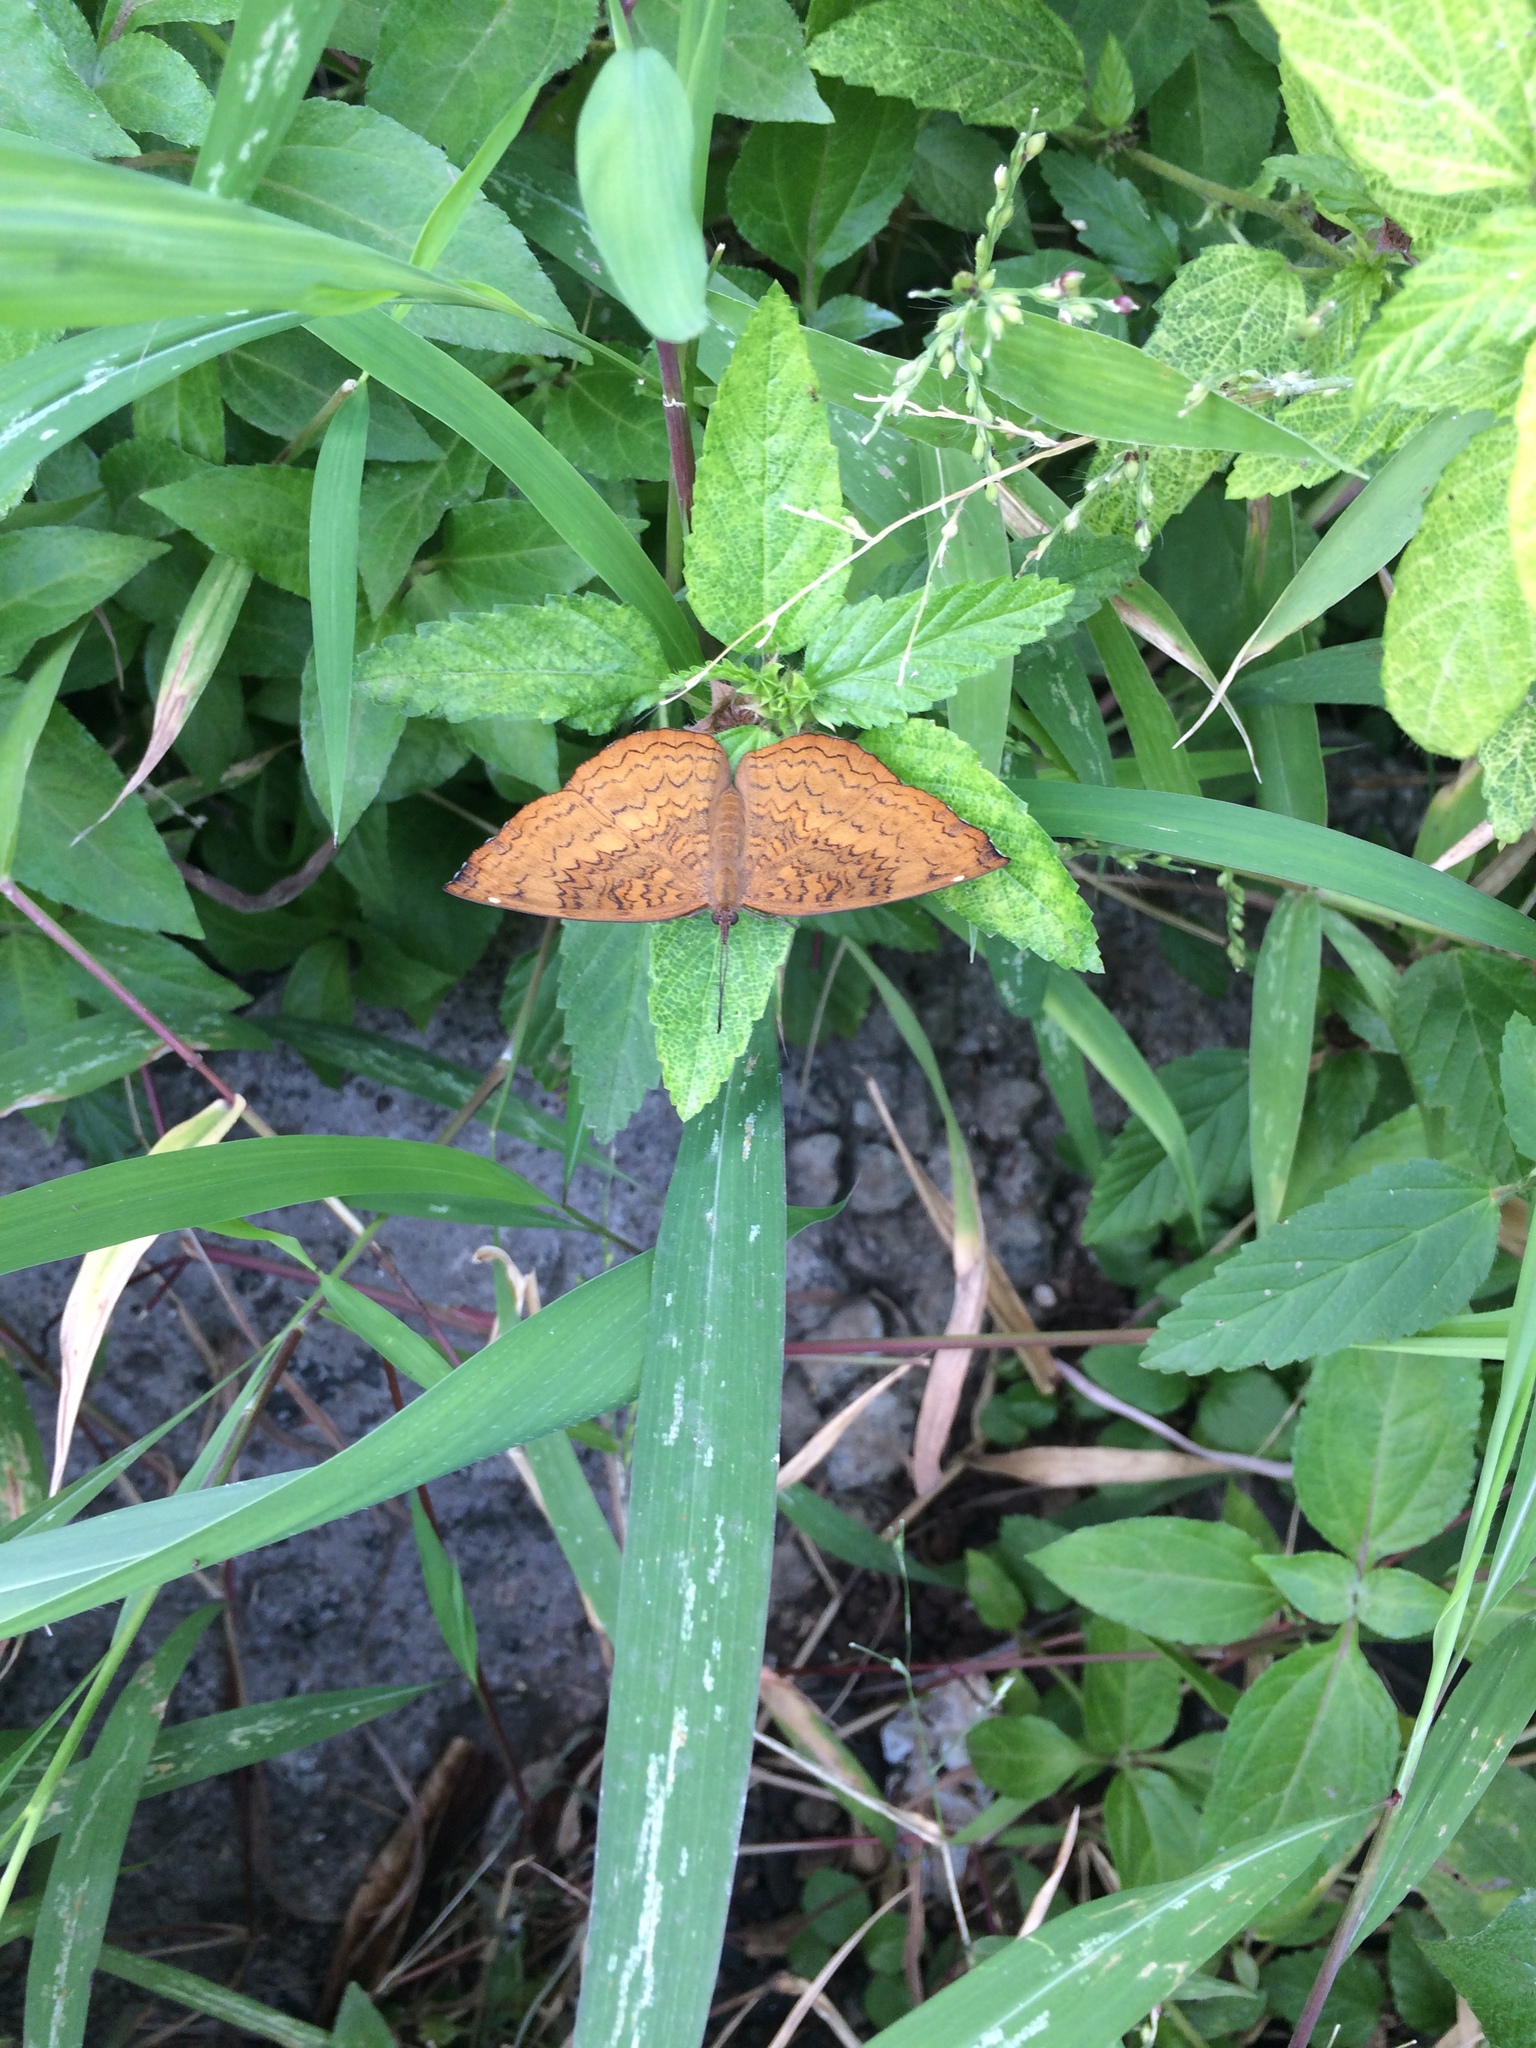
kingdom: Animalia
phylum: Arthropoda
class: Insecta
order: Lepidoptera
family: Nymphalidae
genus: Ariadne
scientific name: Ariadne merione
